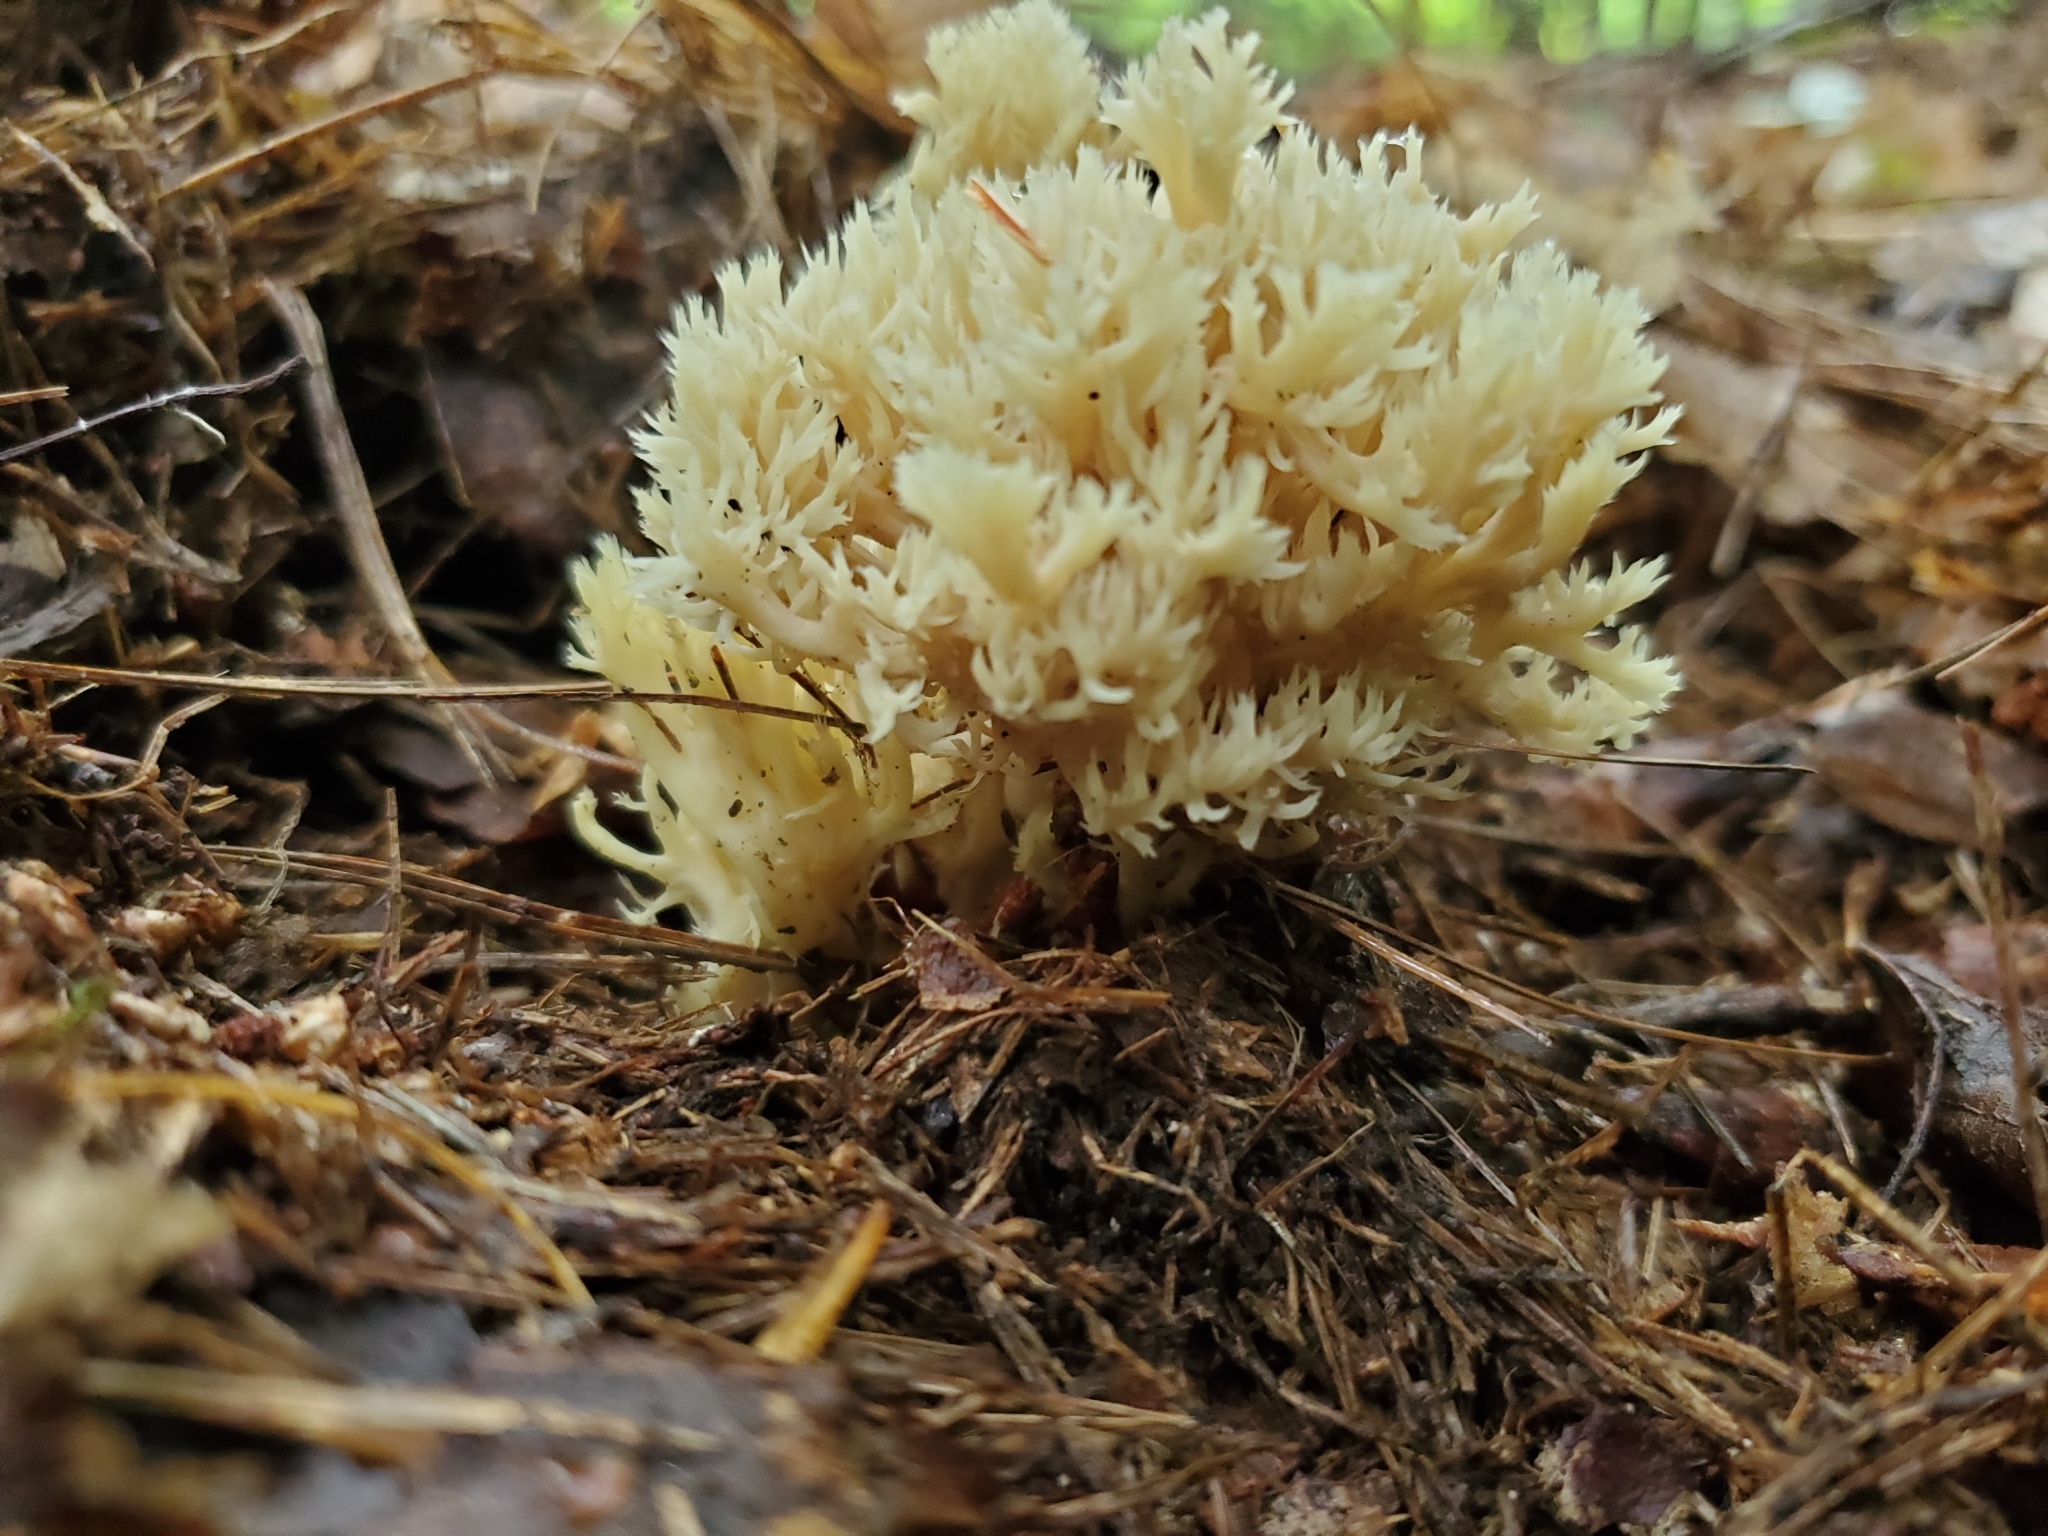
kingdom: Fungi
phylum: Basidiomycota
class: Agaricomycetes
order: Cantharellales
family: Hydnaceae
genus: Clavulina
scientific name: Clavulina coralloides
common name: Crested coral
